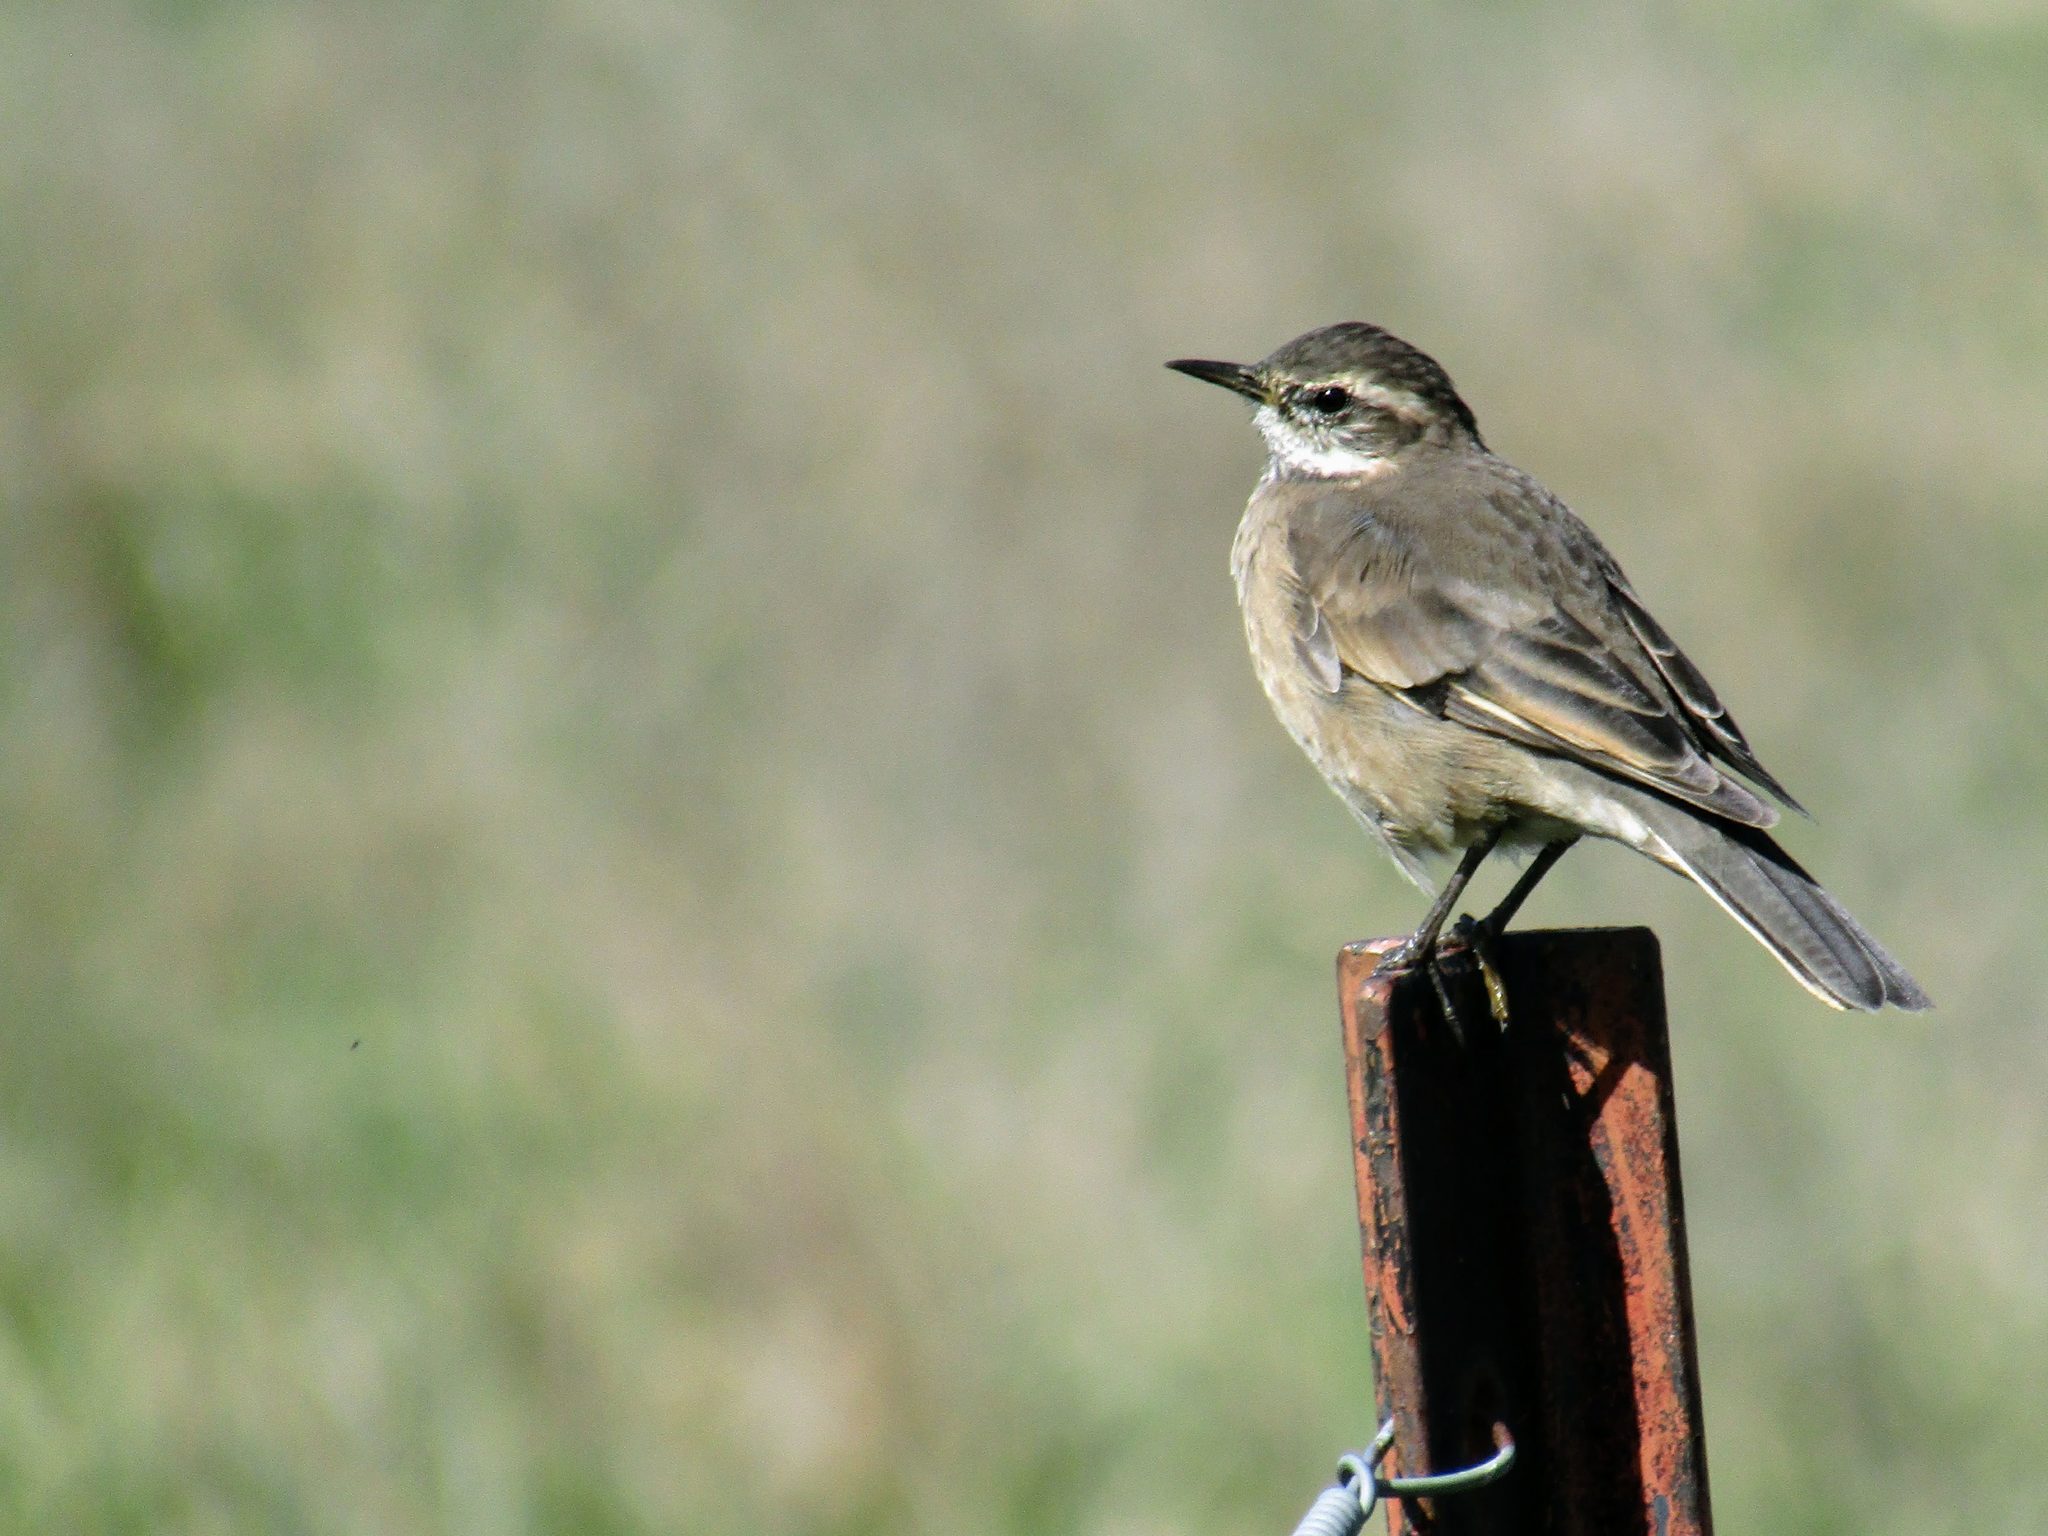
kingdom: Animalia
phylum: Chordata
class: Aves
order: Passeriformes
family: Furnariidae
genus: Cinclodes
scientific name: Cinclodes fuscus
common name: Buff-winged cinclodes
